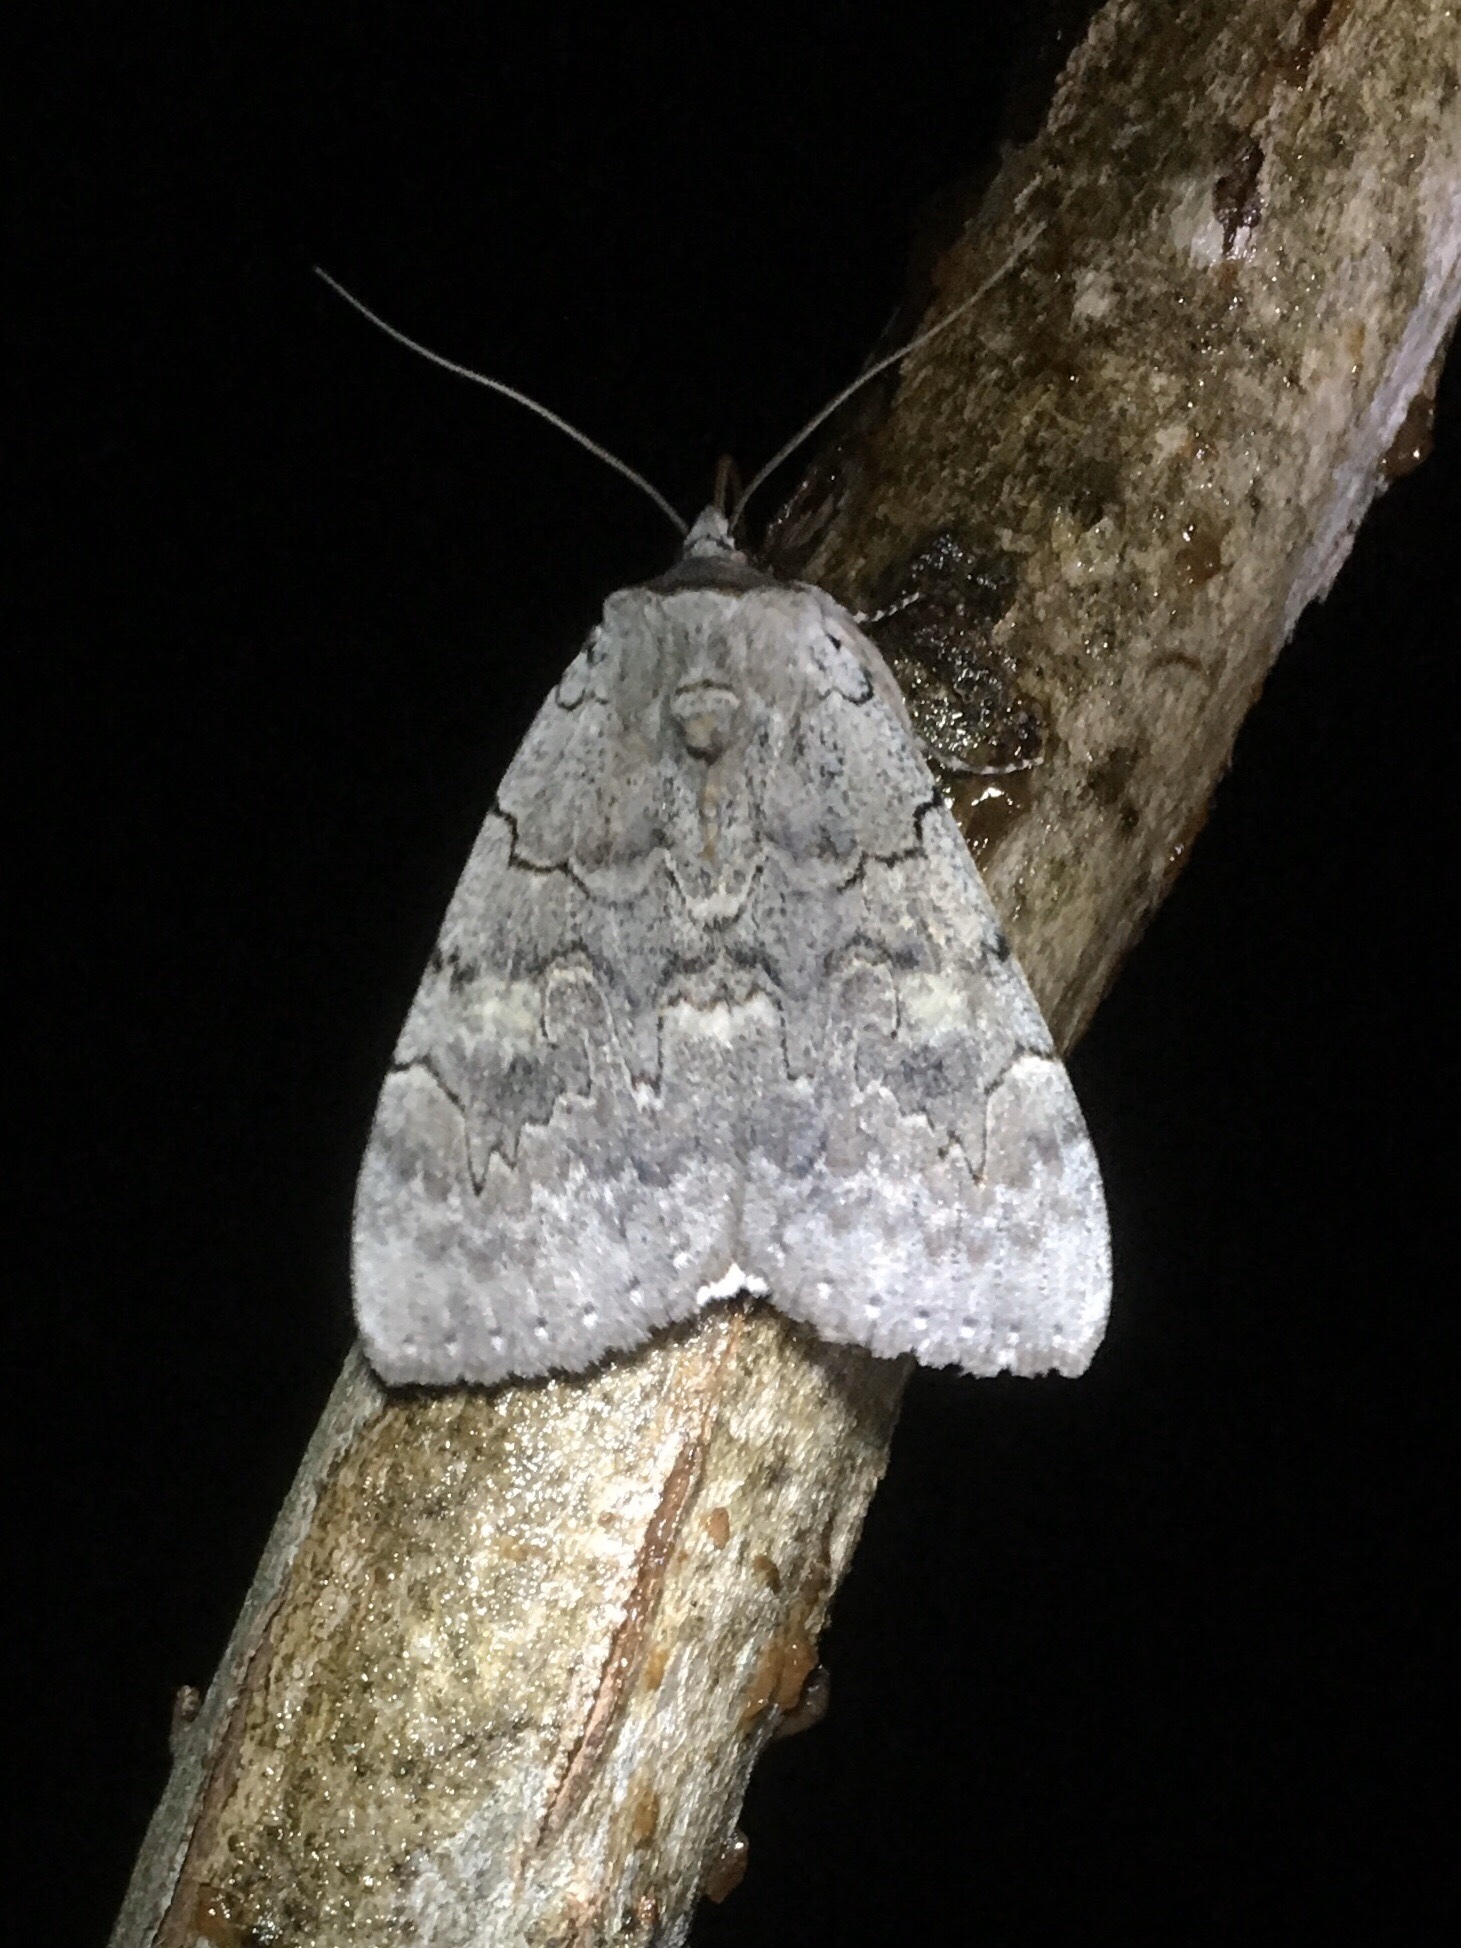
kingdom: Animalia
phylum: Arthropoda
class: Insecta
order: Lepidoptera
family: Erebidae
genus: Catocala
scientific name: Catocala concumbens
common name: Pink underwing
